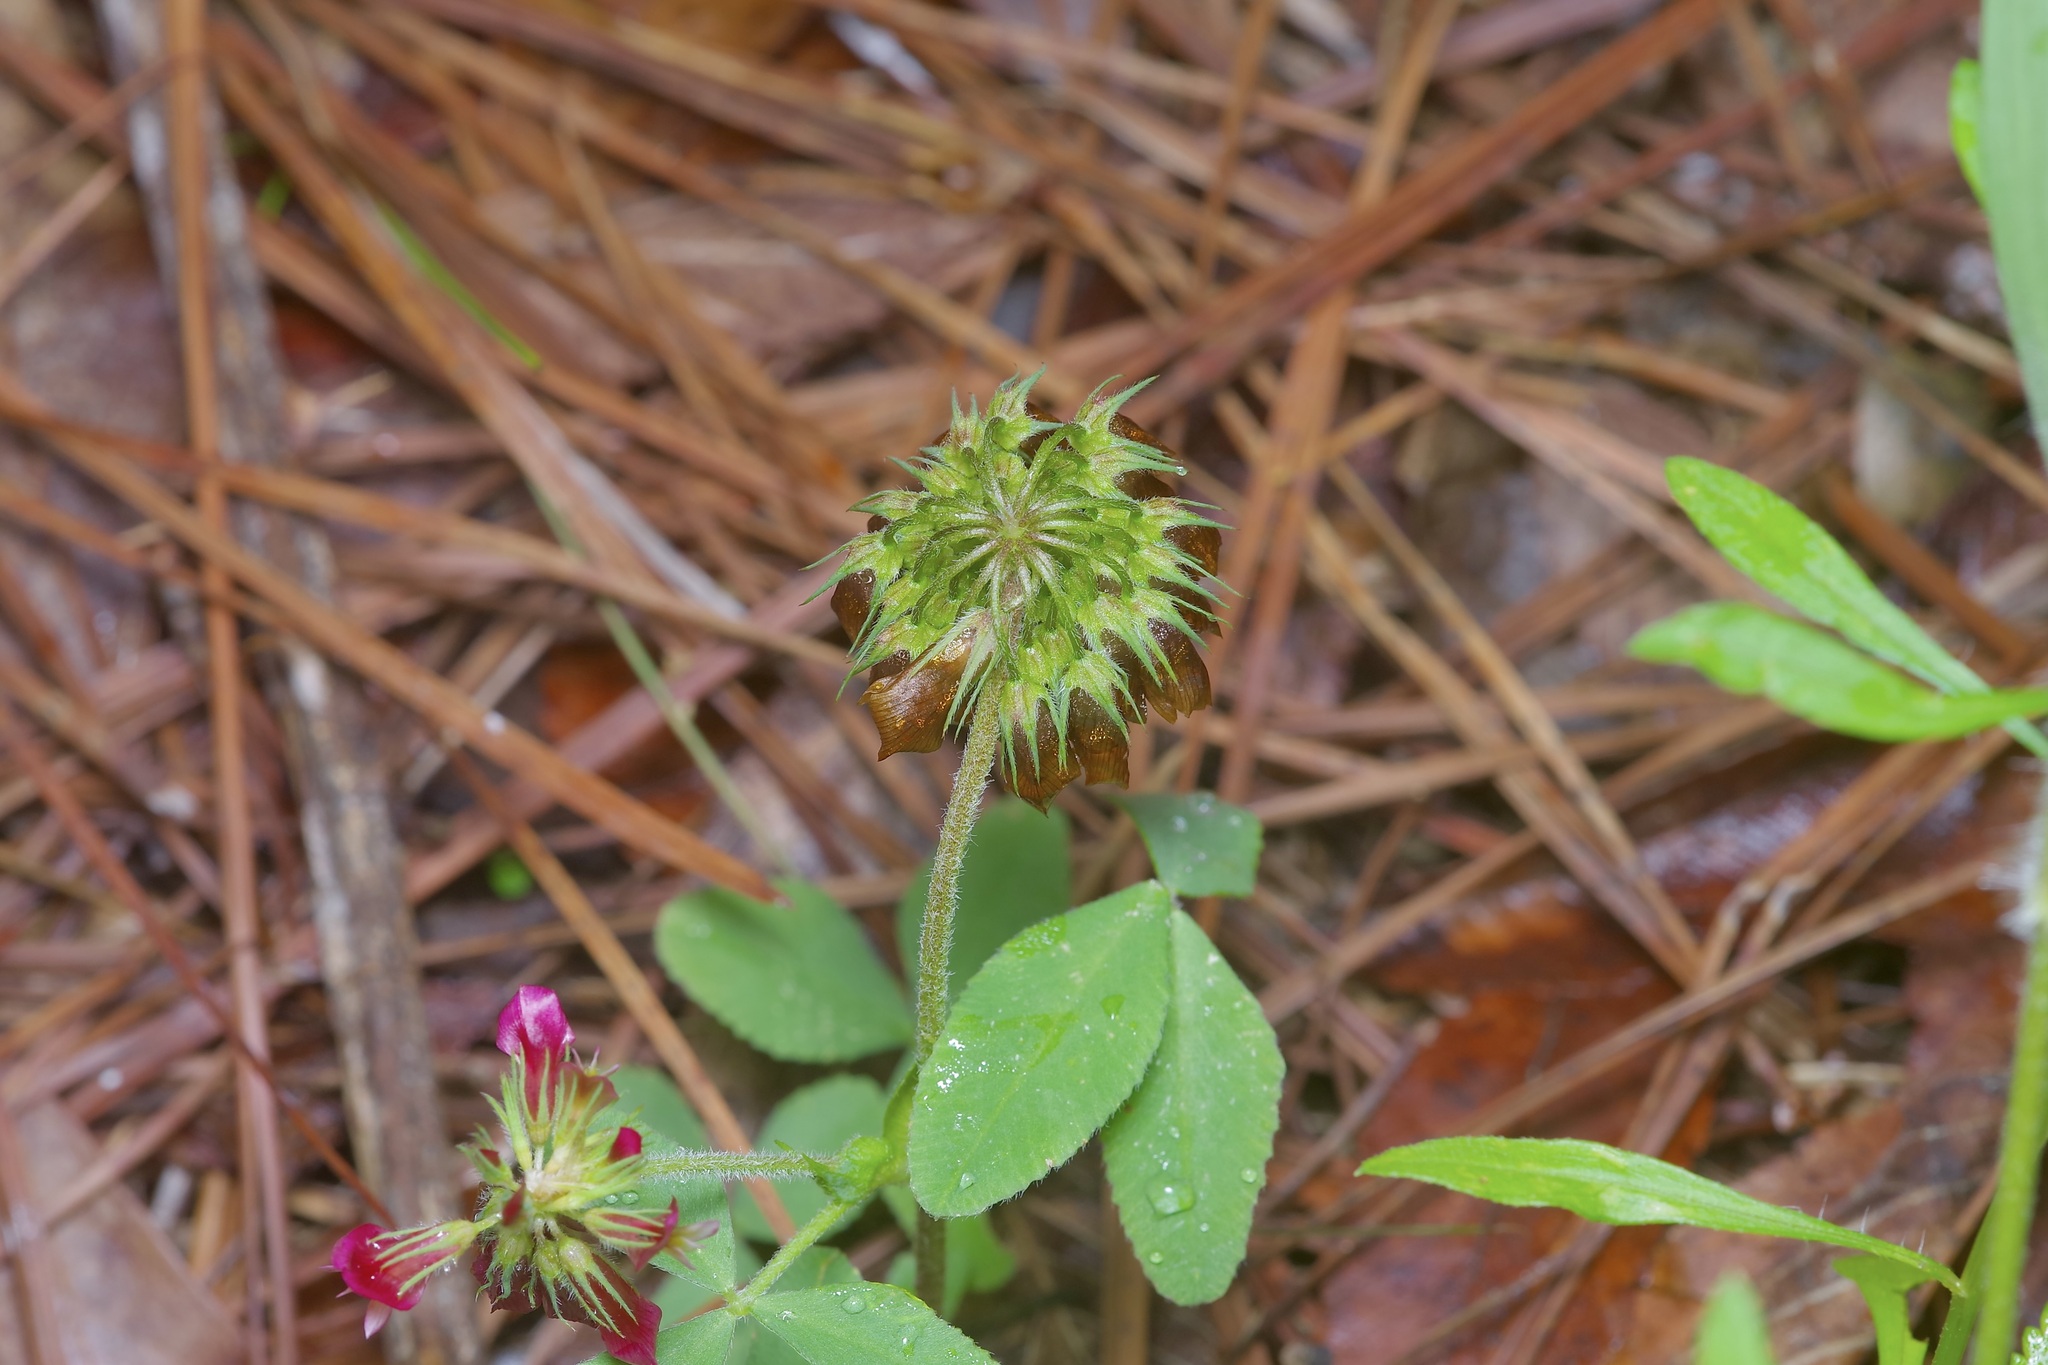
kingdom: Plantae
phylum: Tracheophyta
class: Magnoliopsida
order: Fabales
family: Fabaceae
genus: Trifolium
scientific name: Trifolium reflexum
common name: Buffalo clover
